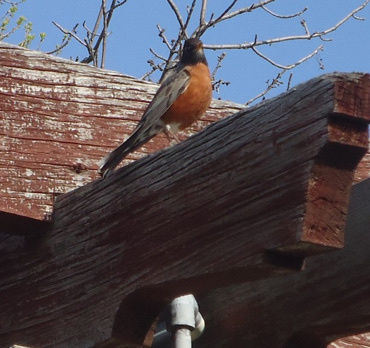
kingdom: Animalia
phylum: Chordata
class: Aves
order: Passeriformes
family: Turdidae
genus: Turdus
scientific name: Turdus migratorius
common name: American robin
